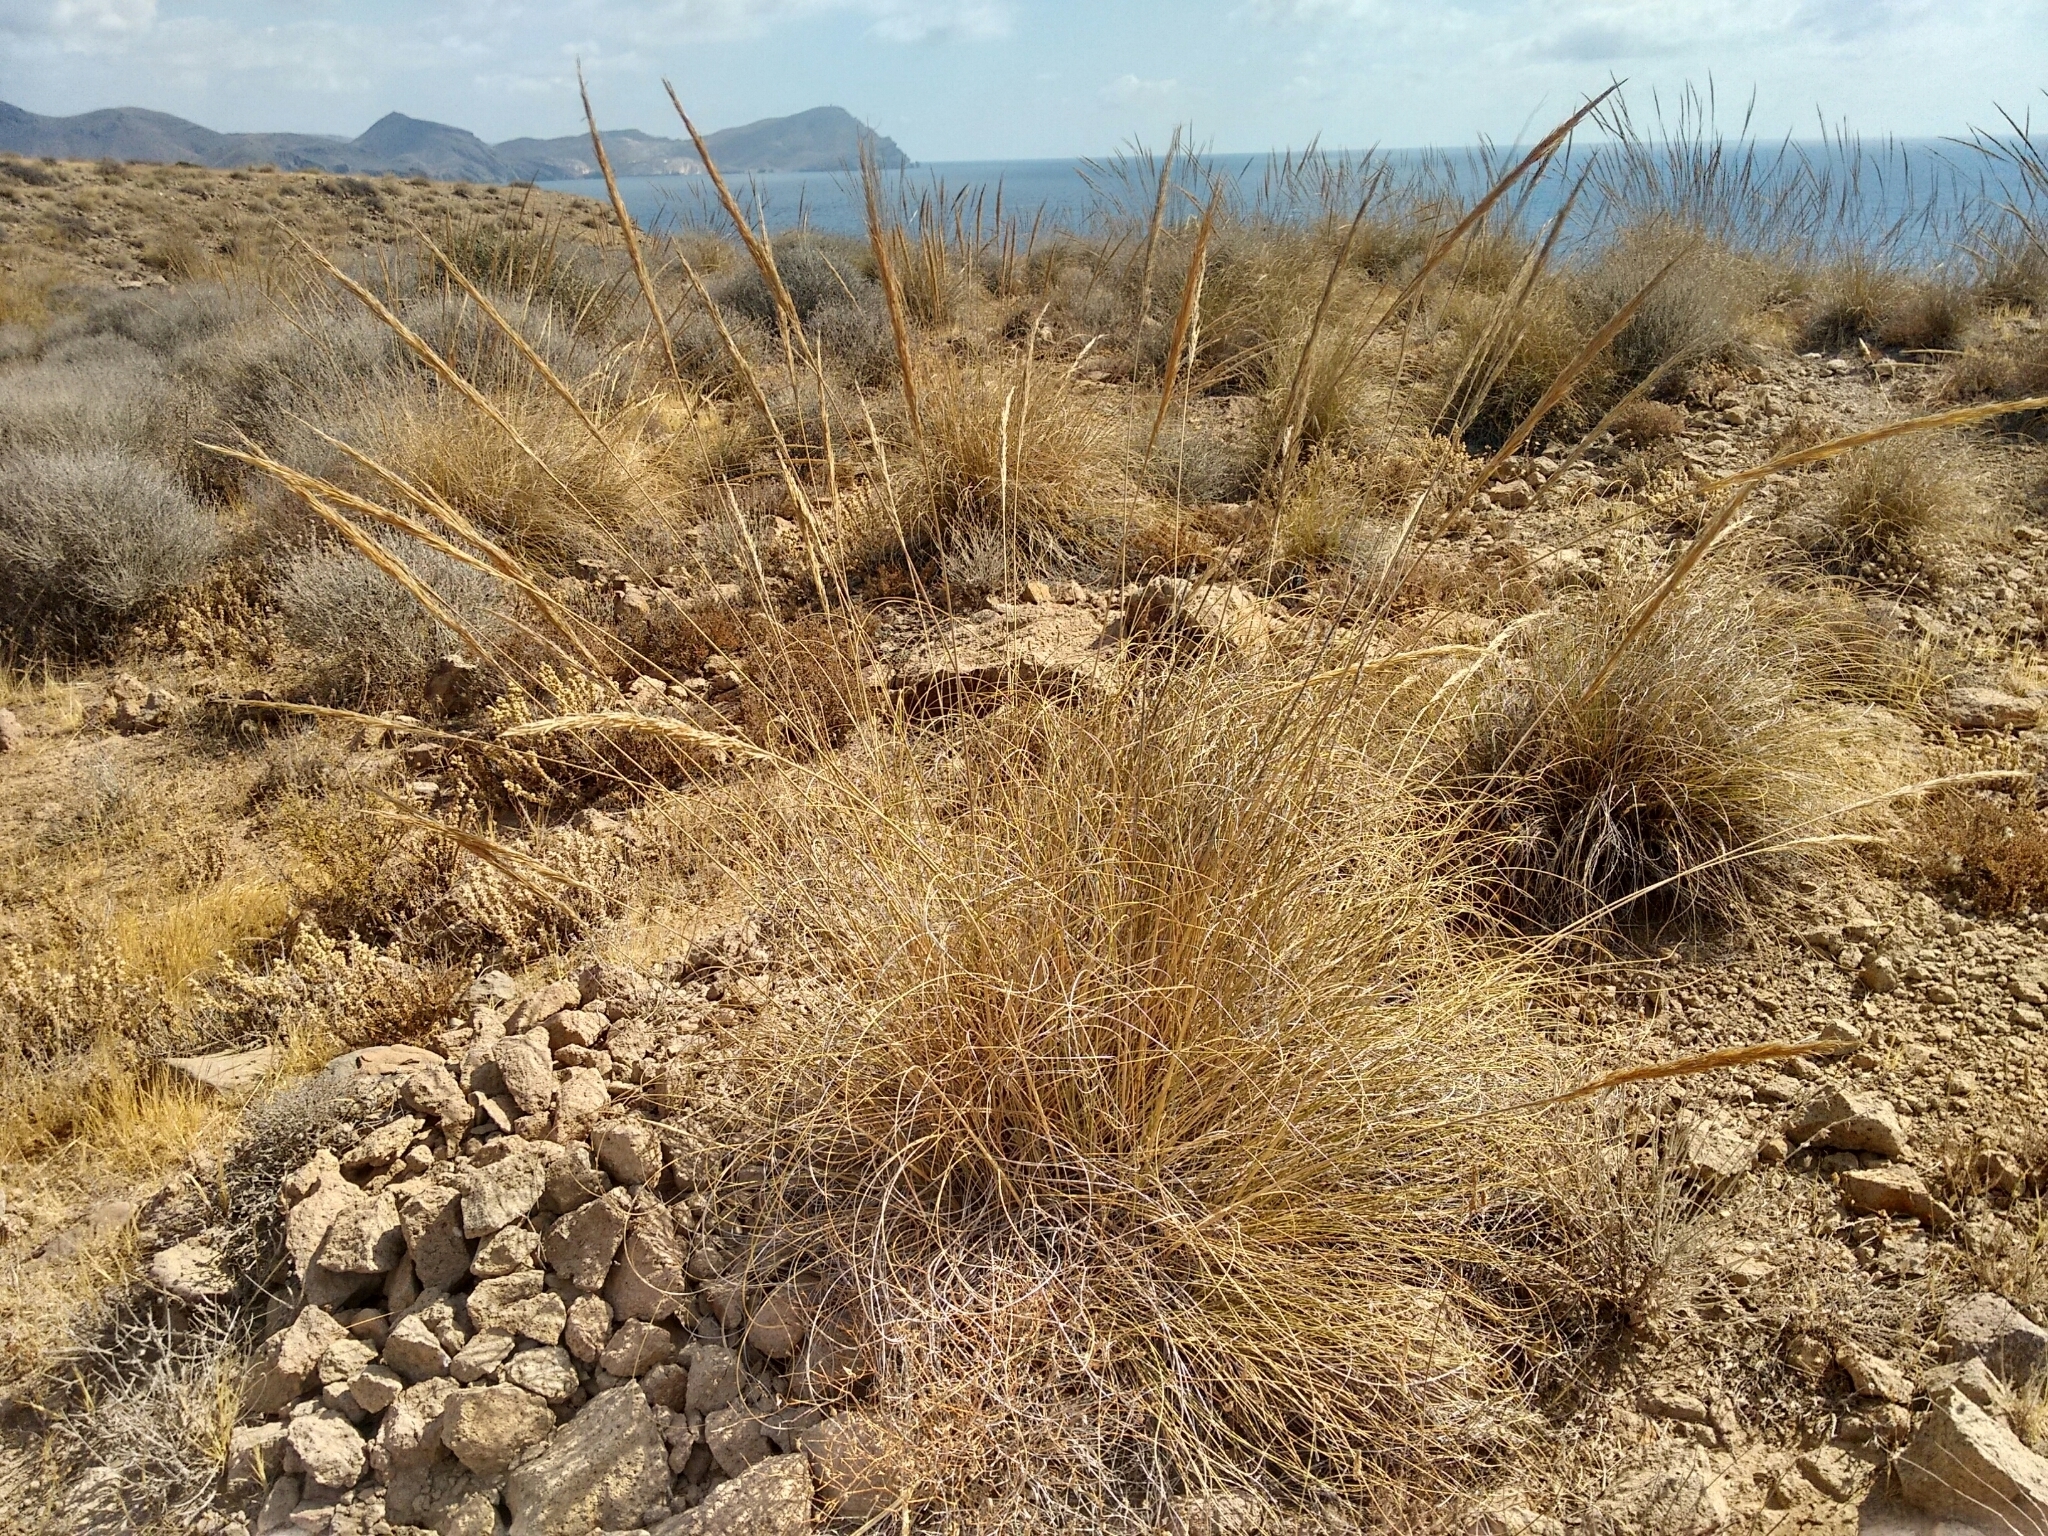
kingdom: Plantae
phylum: Tracheophyta
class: Liliopsida
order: Poales
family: Poaceae
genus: Macrochloa
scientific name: Macrochloa tenacissima
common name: Alfa grass
